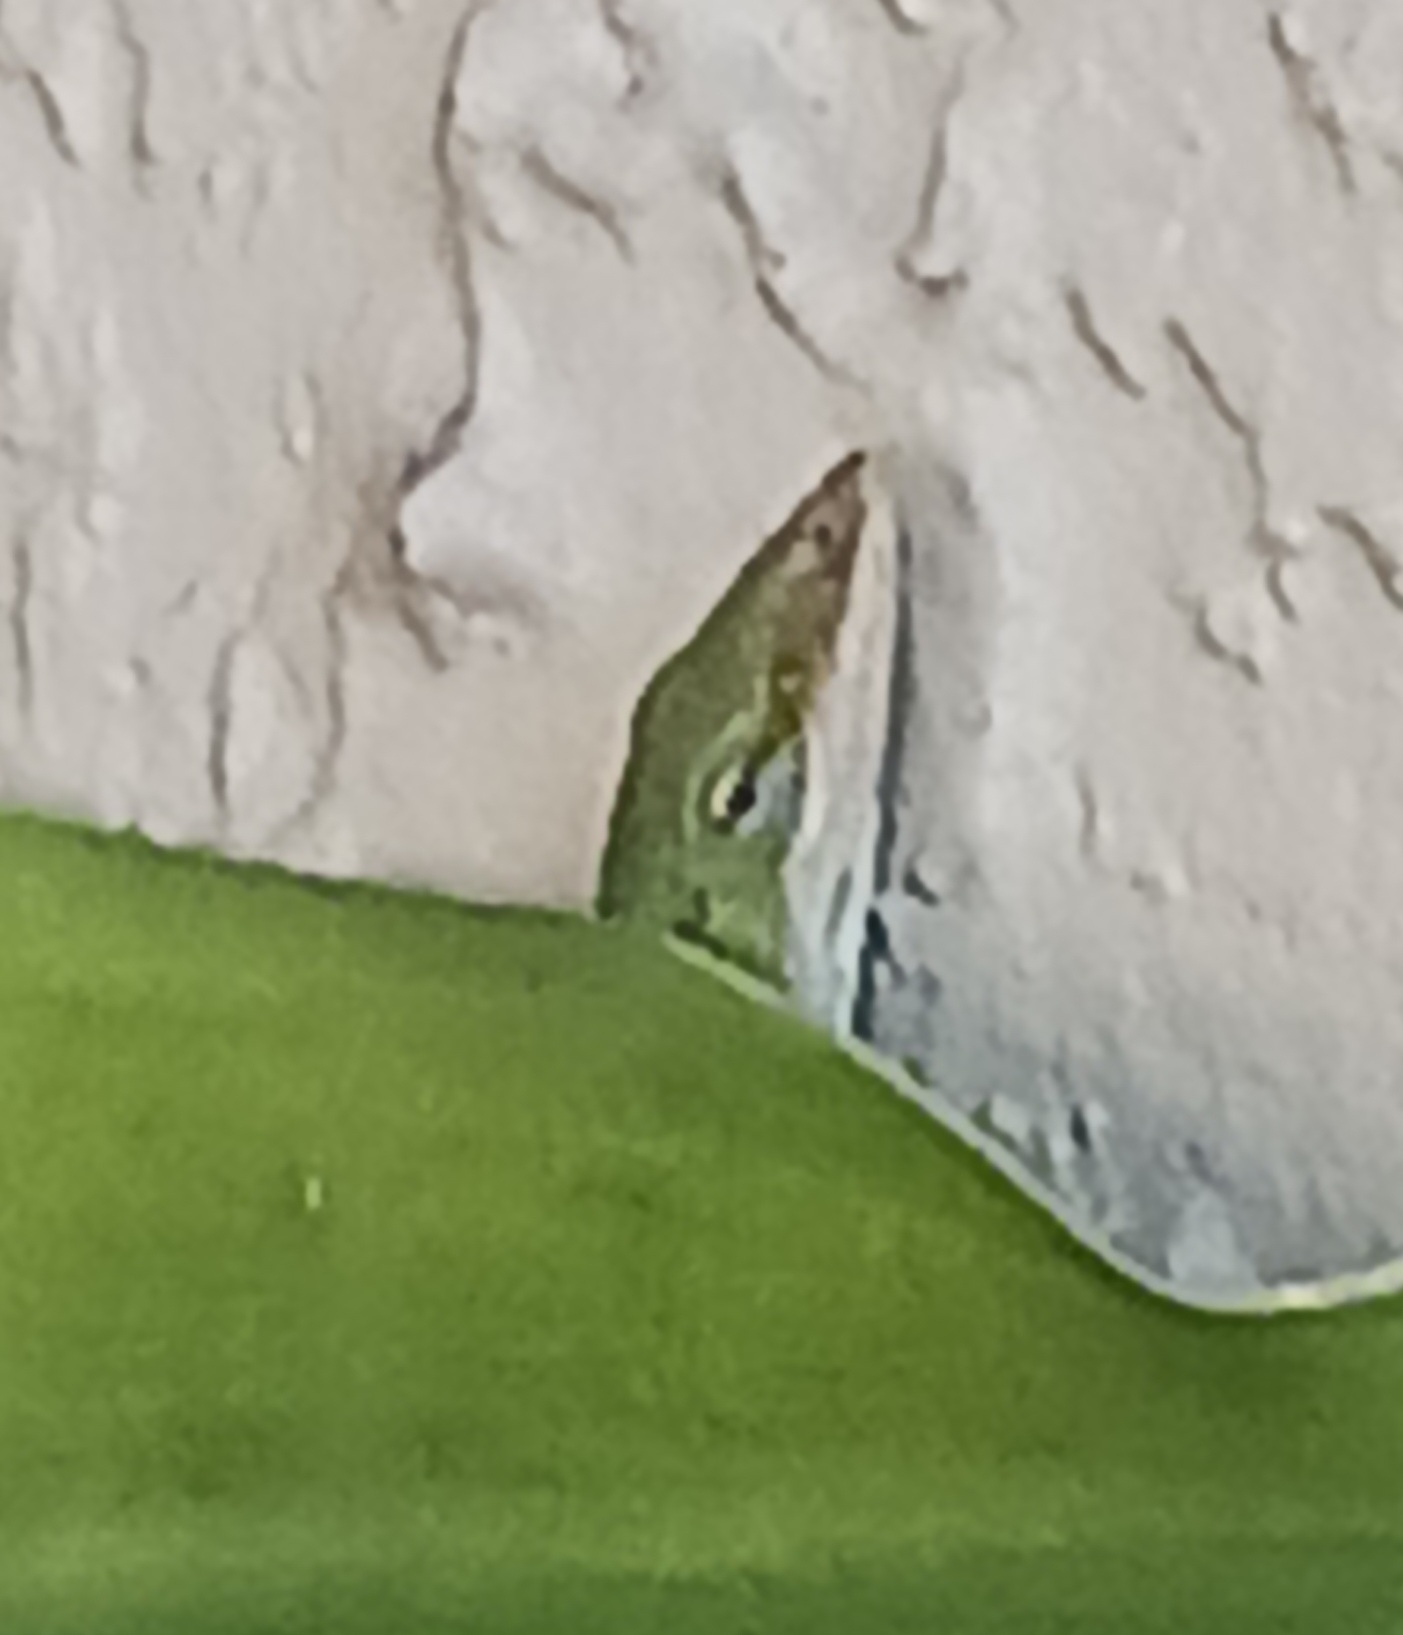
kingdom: Animalia
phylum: Chordata
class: Squamata
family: Dactyloidae
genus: Anolis
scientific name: Anolis carolinensis
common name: Green anole
